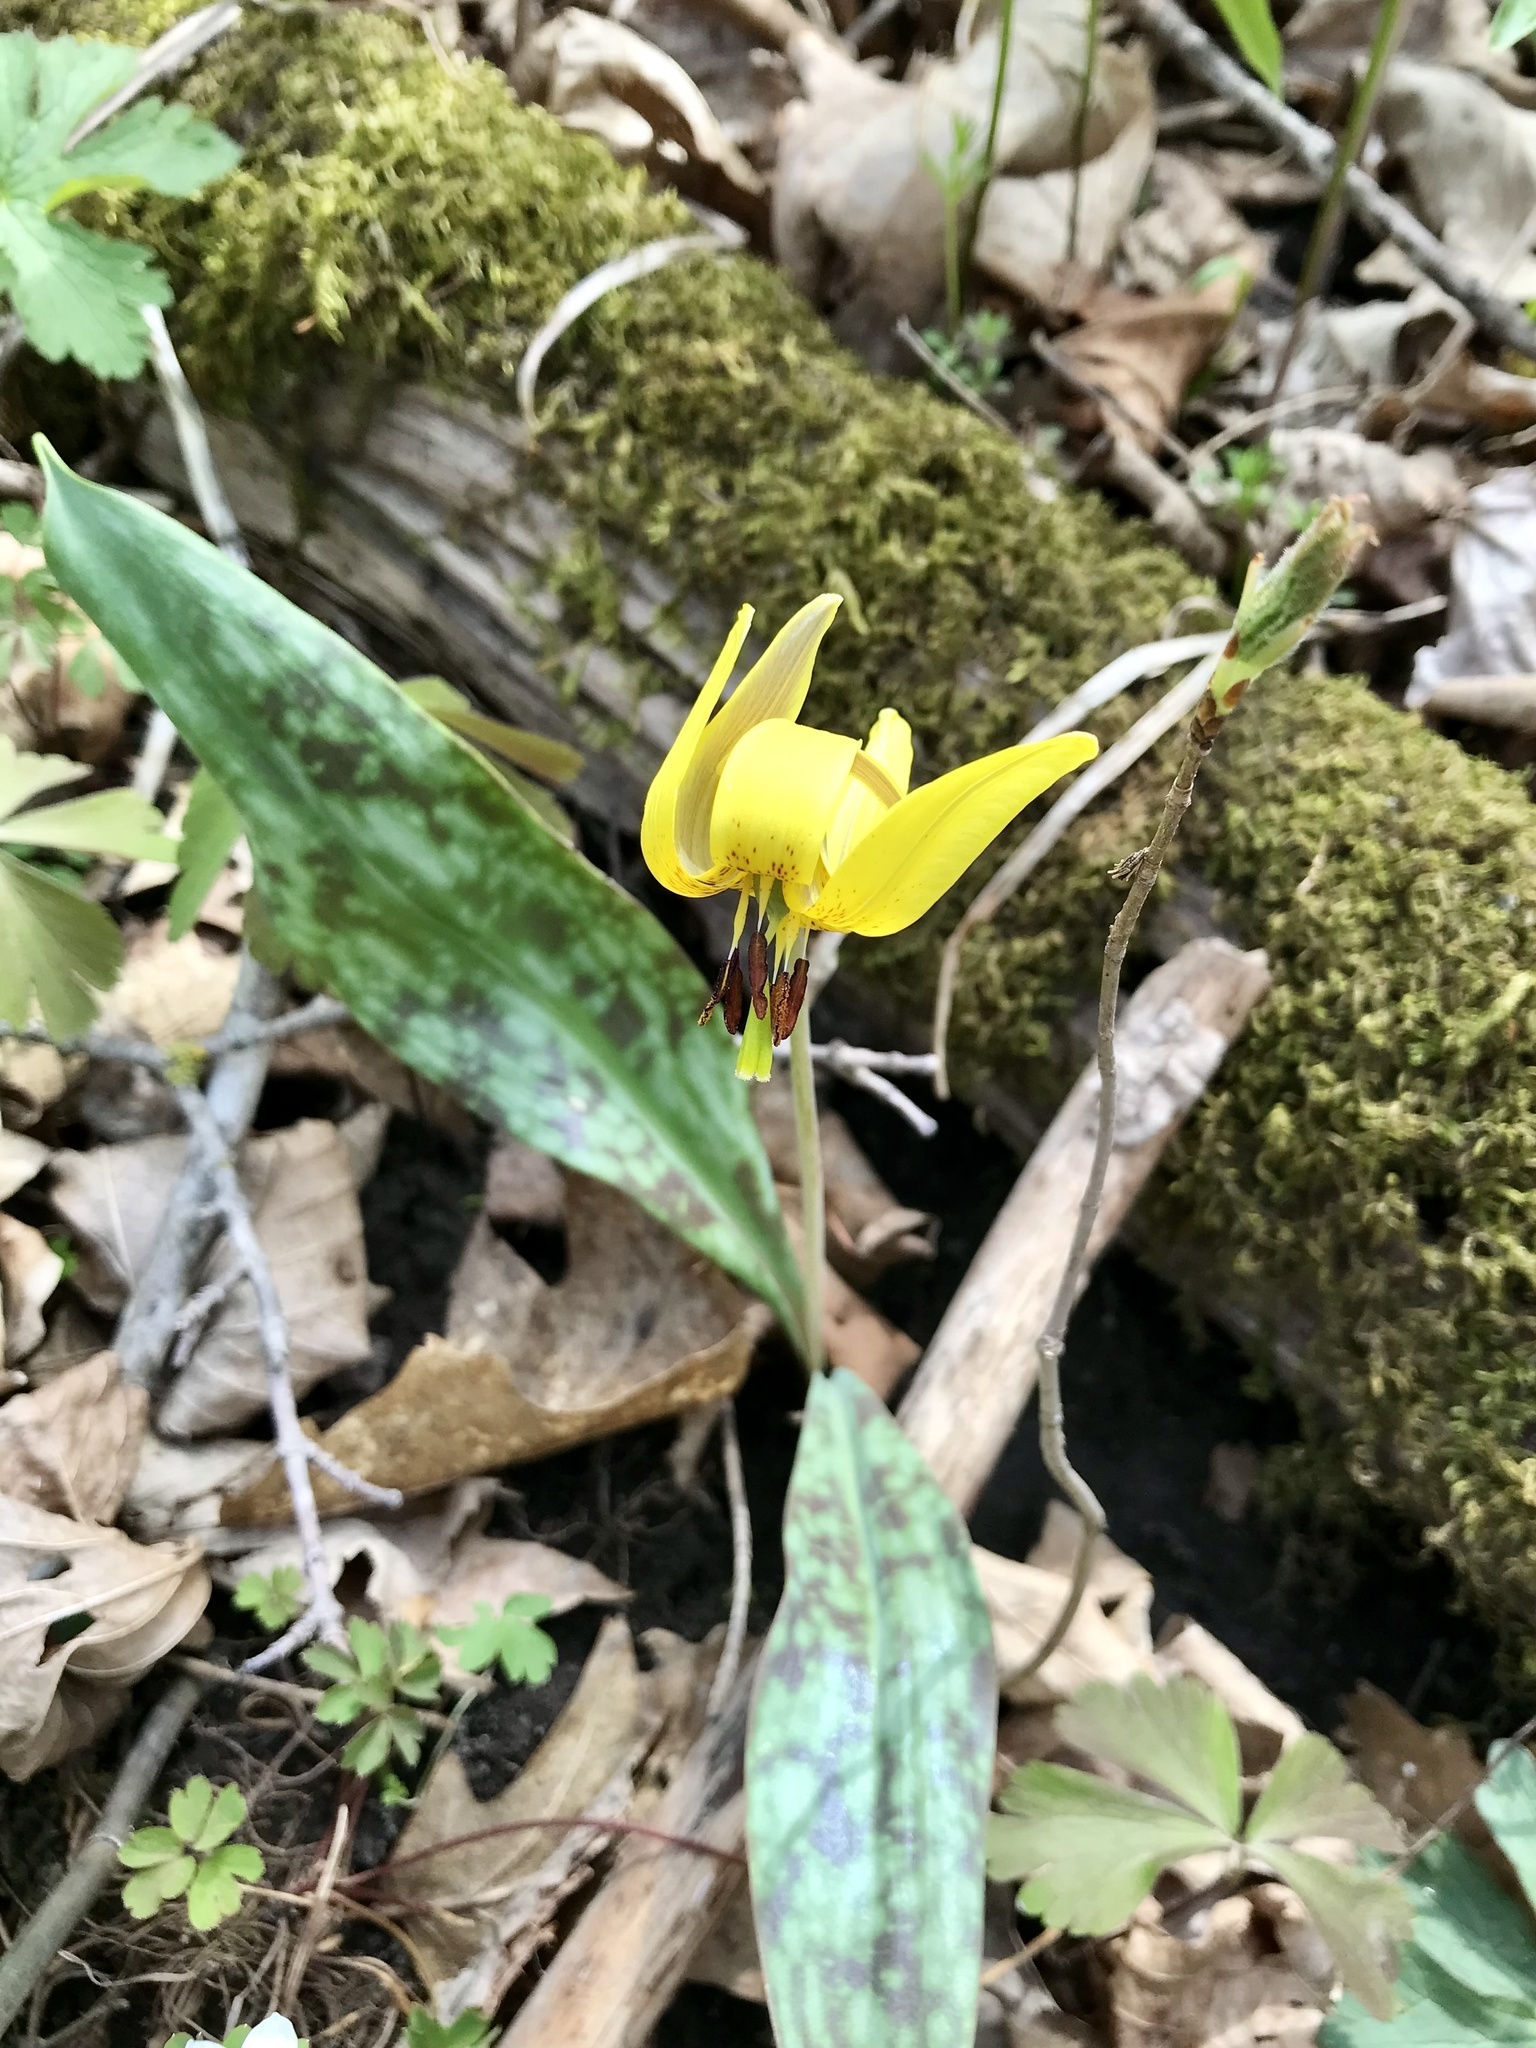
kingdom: Plantae
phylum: Tracheophyta
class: Liliopsida
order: Liliales
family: Liliaceae
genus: Erythronium
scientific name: Erythronium americanum
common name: Yellow adder's-tongue
